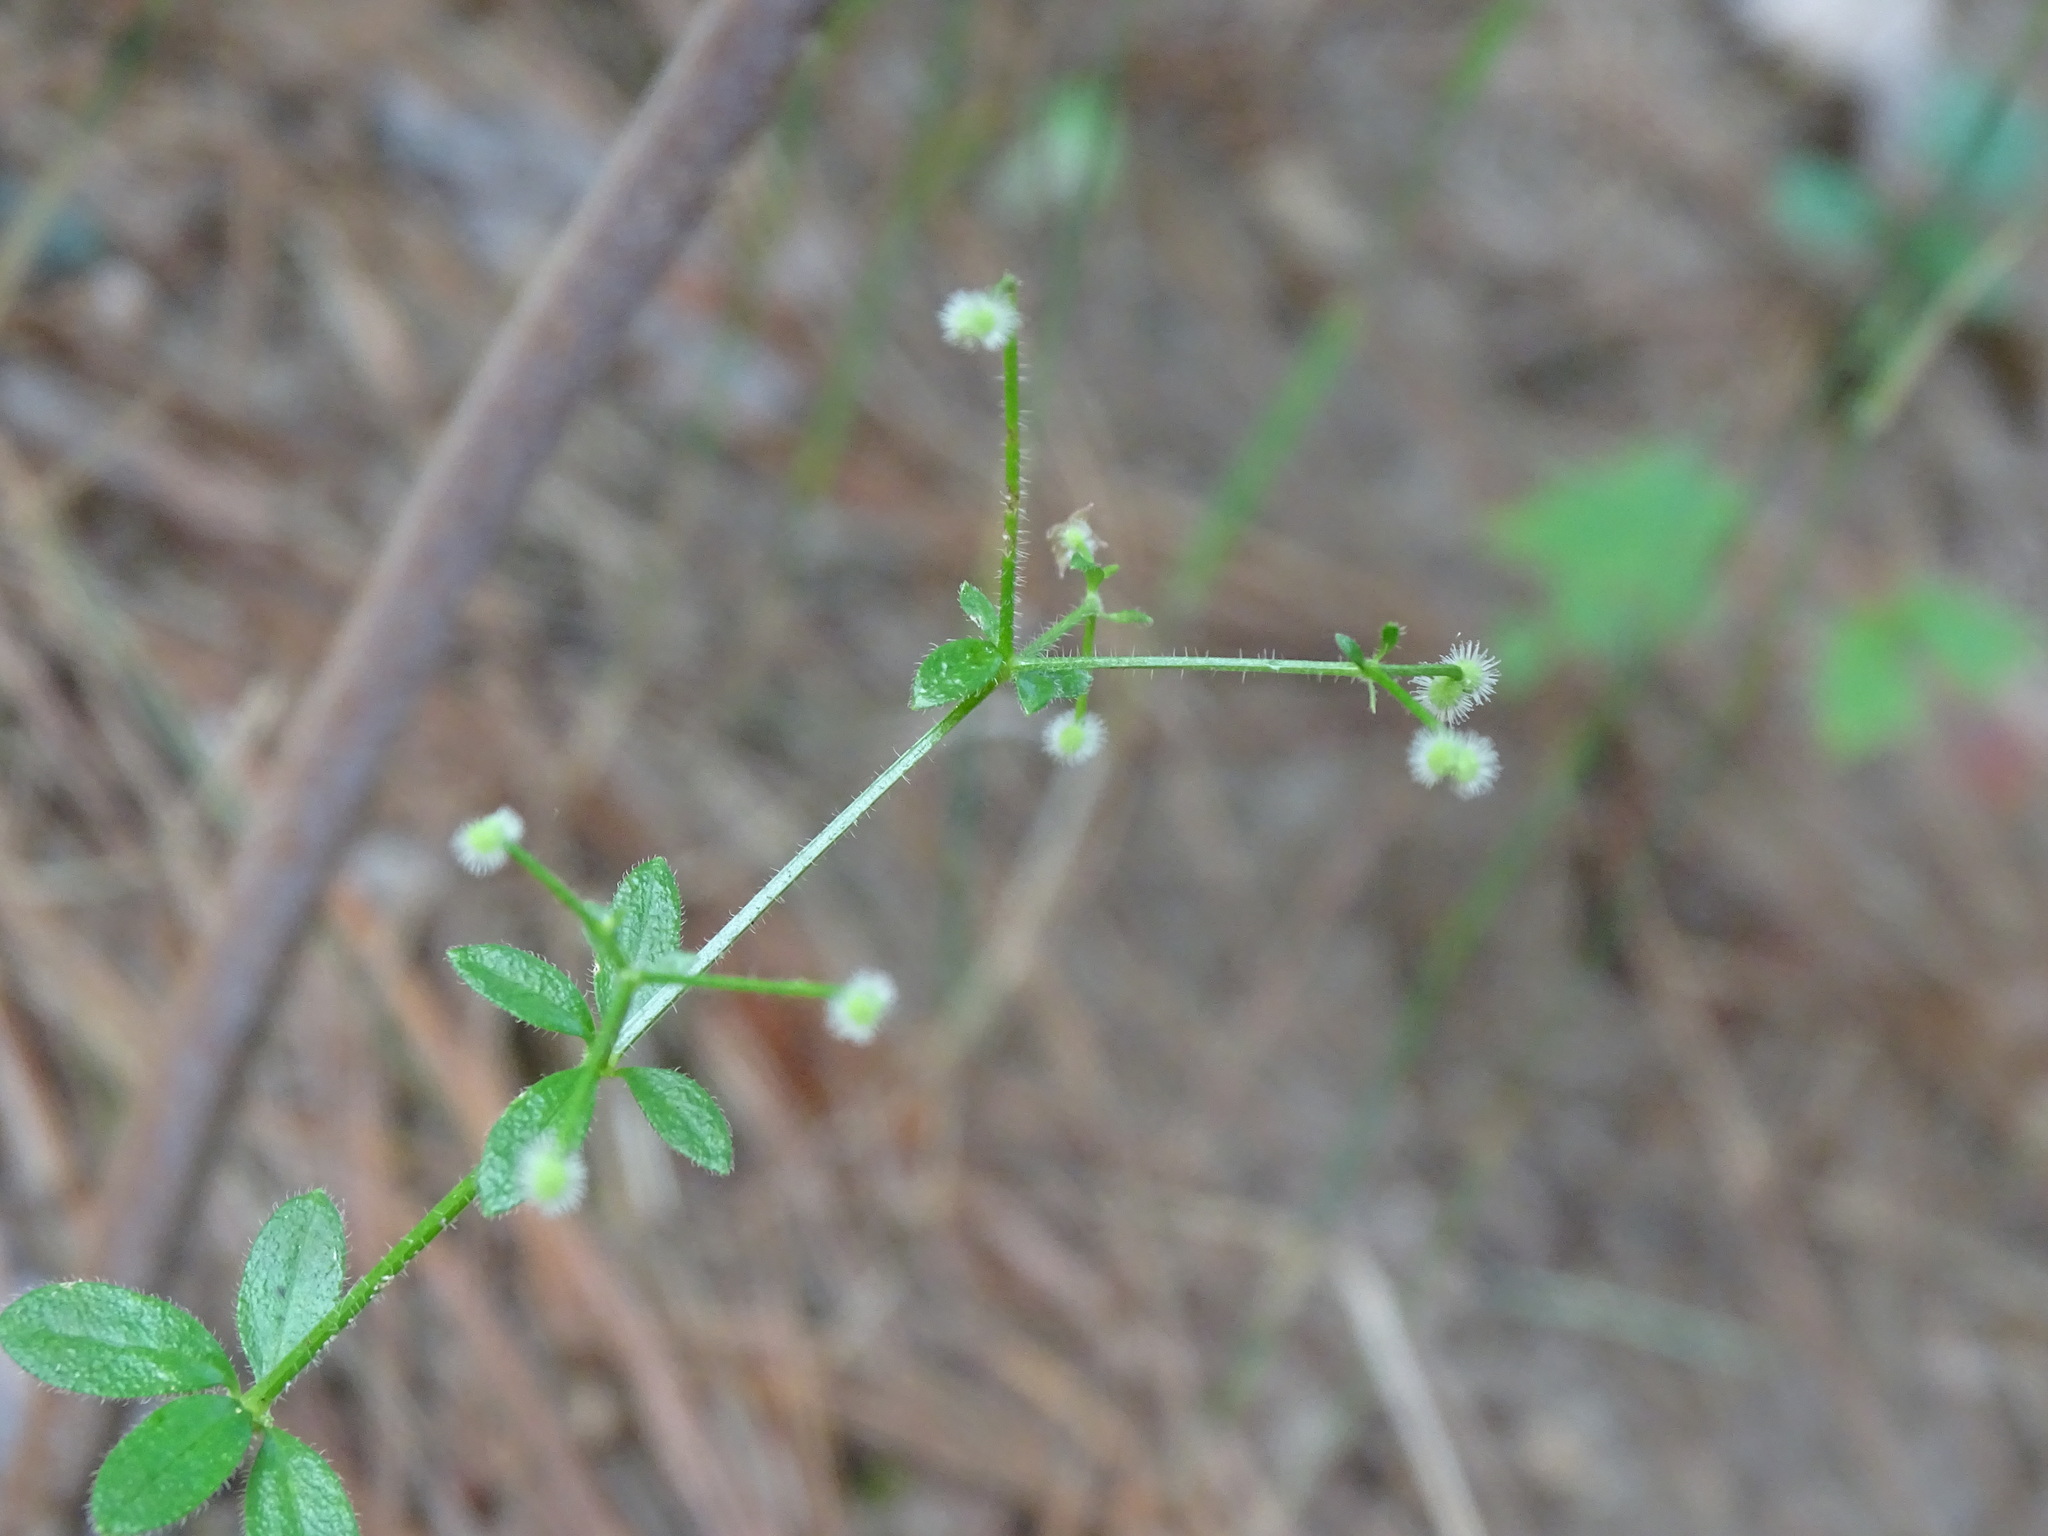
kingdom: Plantae
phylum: Tracheophyta
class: Magnoliopsida
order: Gentianales
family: Rubiaceae
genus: Galium
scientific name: Galium pilosum
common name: Hairy bedstraw
